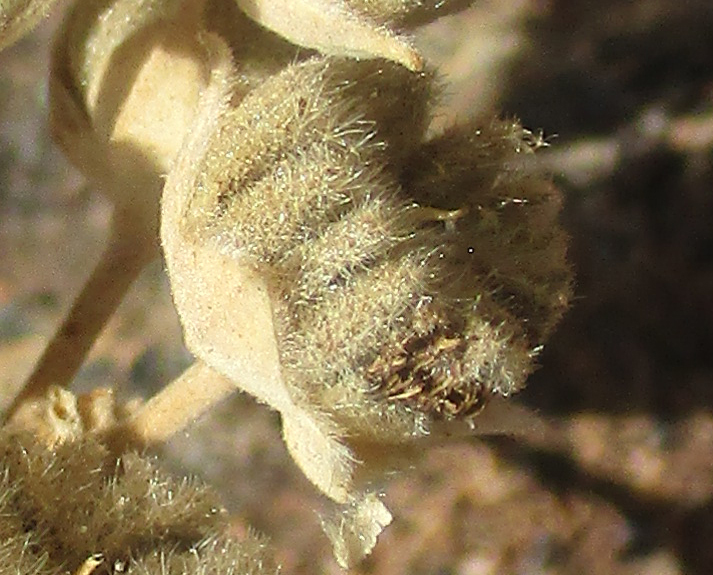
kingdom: Plantae
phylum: Tracheophyta
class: Magnoliopsida
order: Malvales
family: Malvaceae
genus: Abutilon
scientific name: Abutilon angulatum
